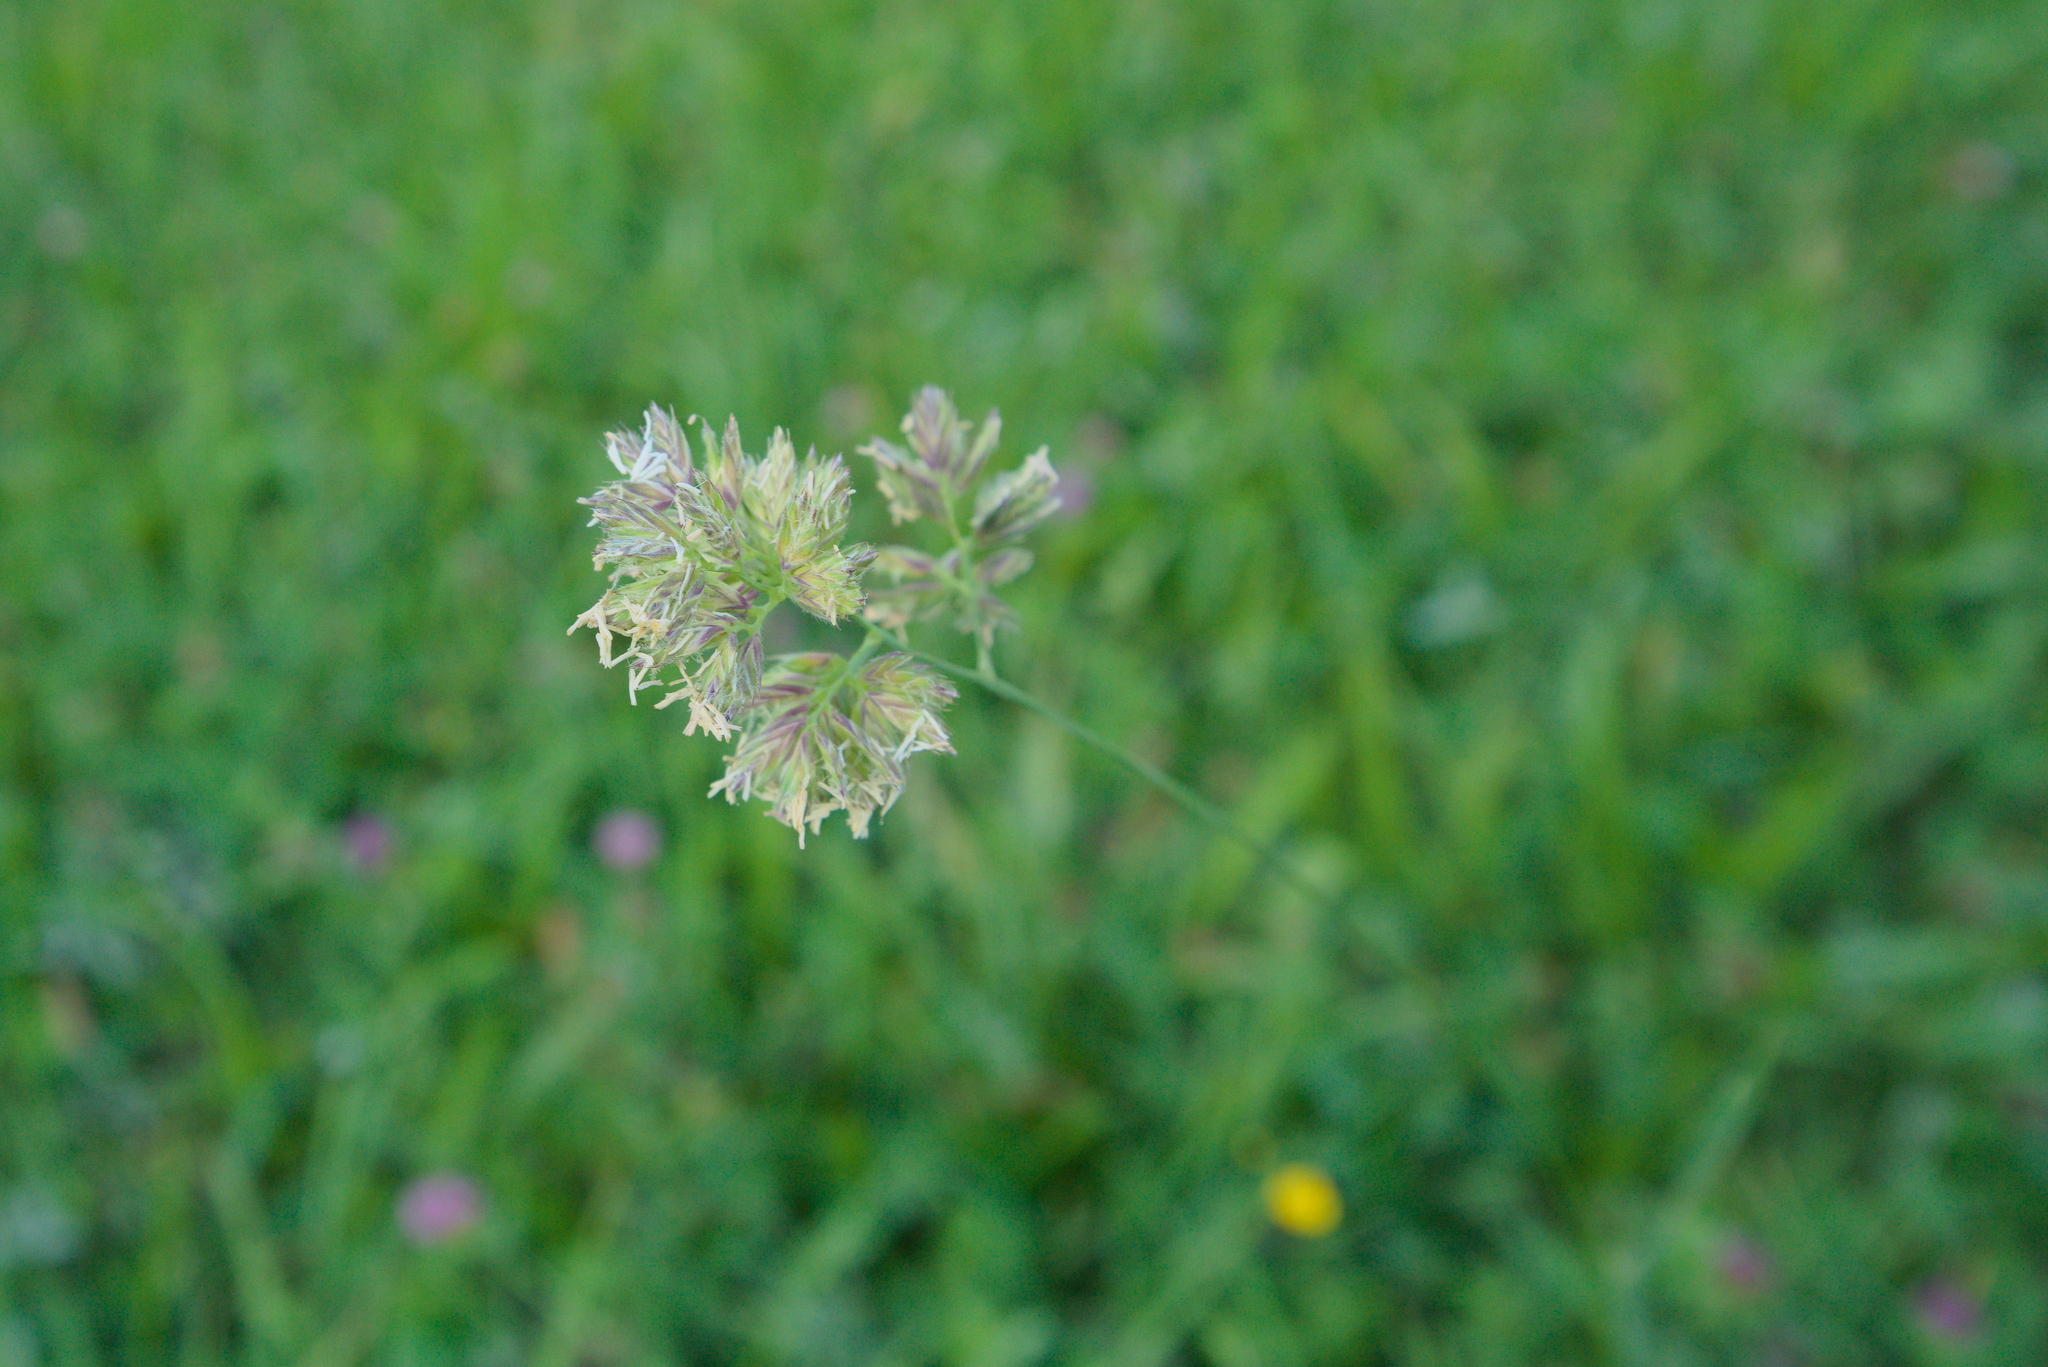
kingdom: Plantae
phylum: Tracheophyta
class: Liliopsida
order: Poales
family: Poaceae
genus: Dactylis
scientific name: Dactylis glomerata
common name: Orchardgrass
